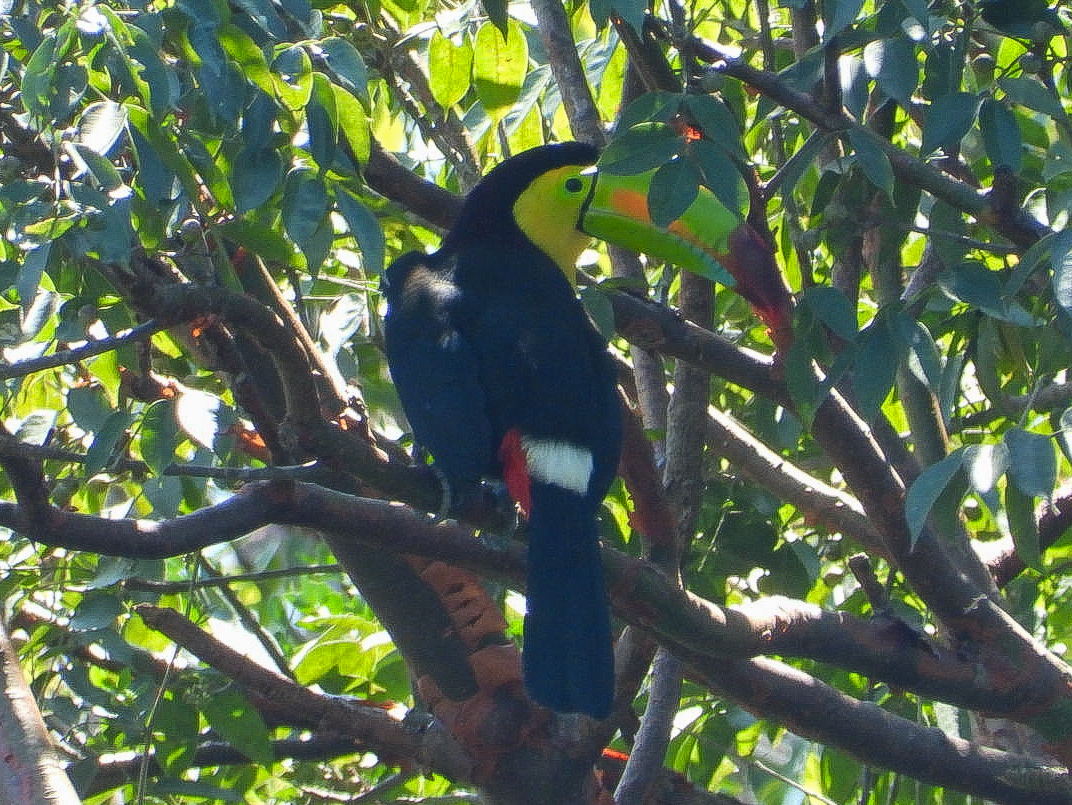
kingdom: Animalia
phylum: Chordata
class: Aves
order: Piciformes
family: Ramphastidae
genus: Ramphastos
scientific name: Ramphastos sulfuratus
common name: Keel-billed toucan
